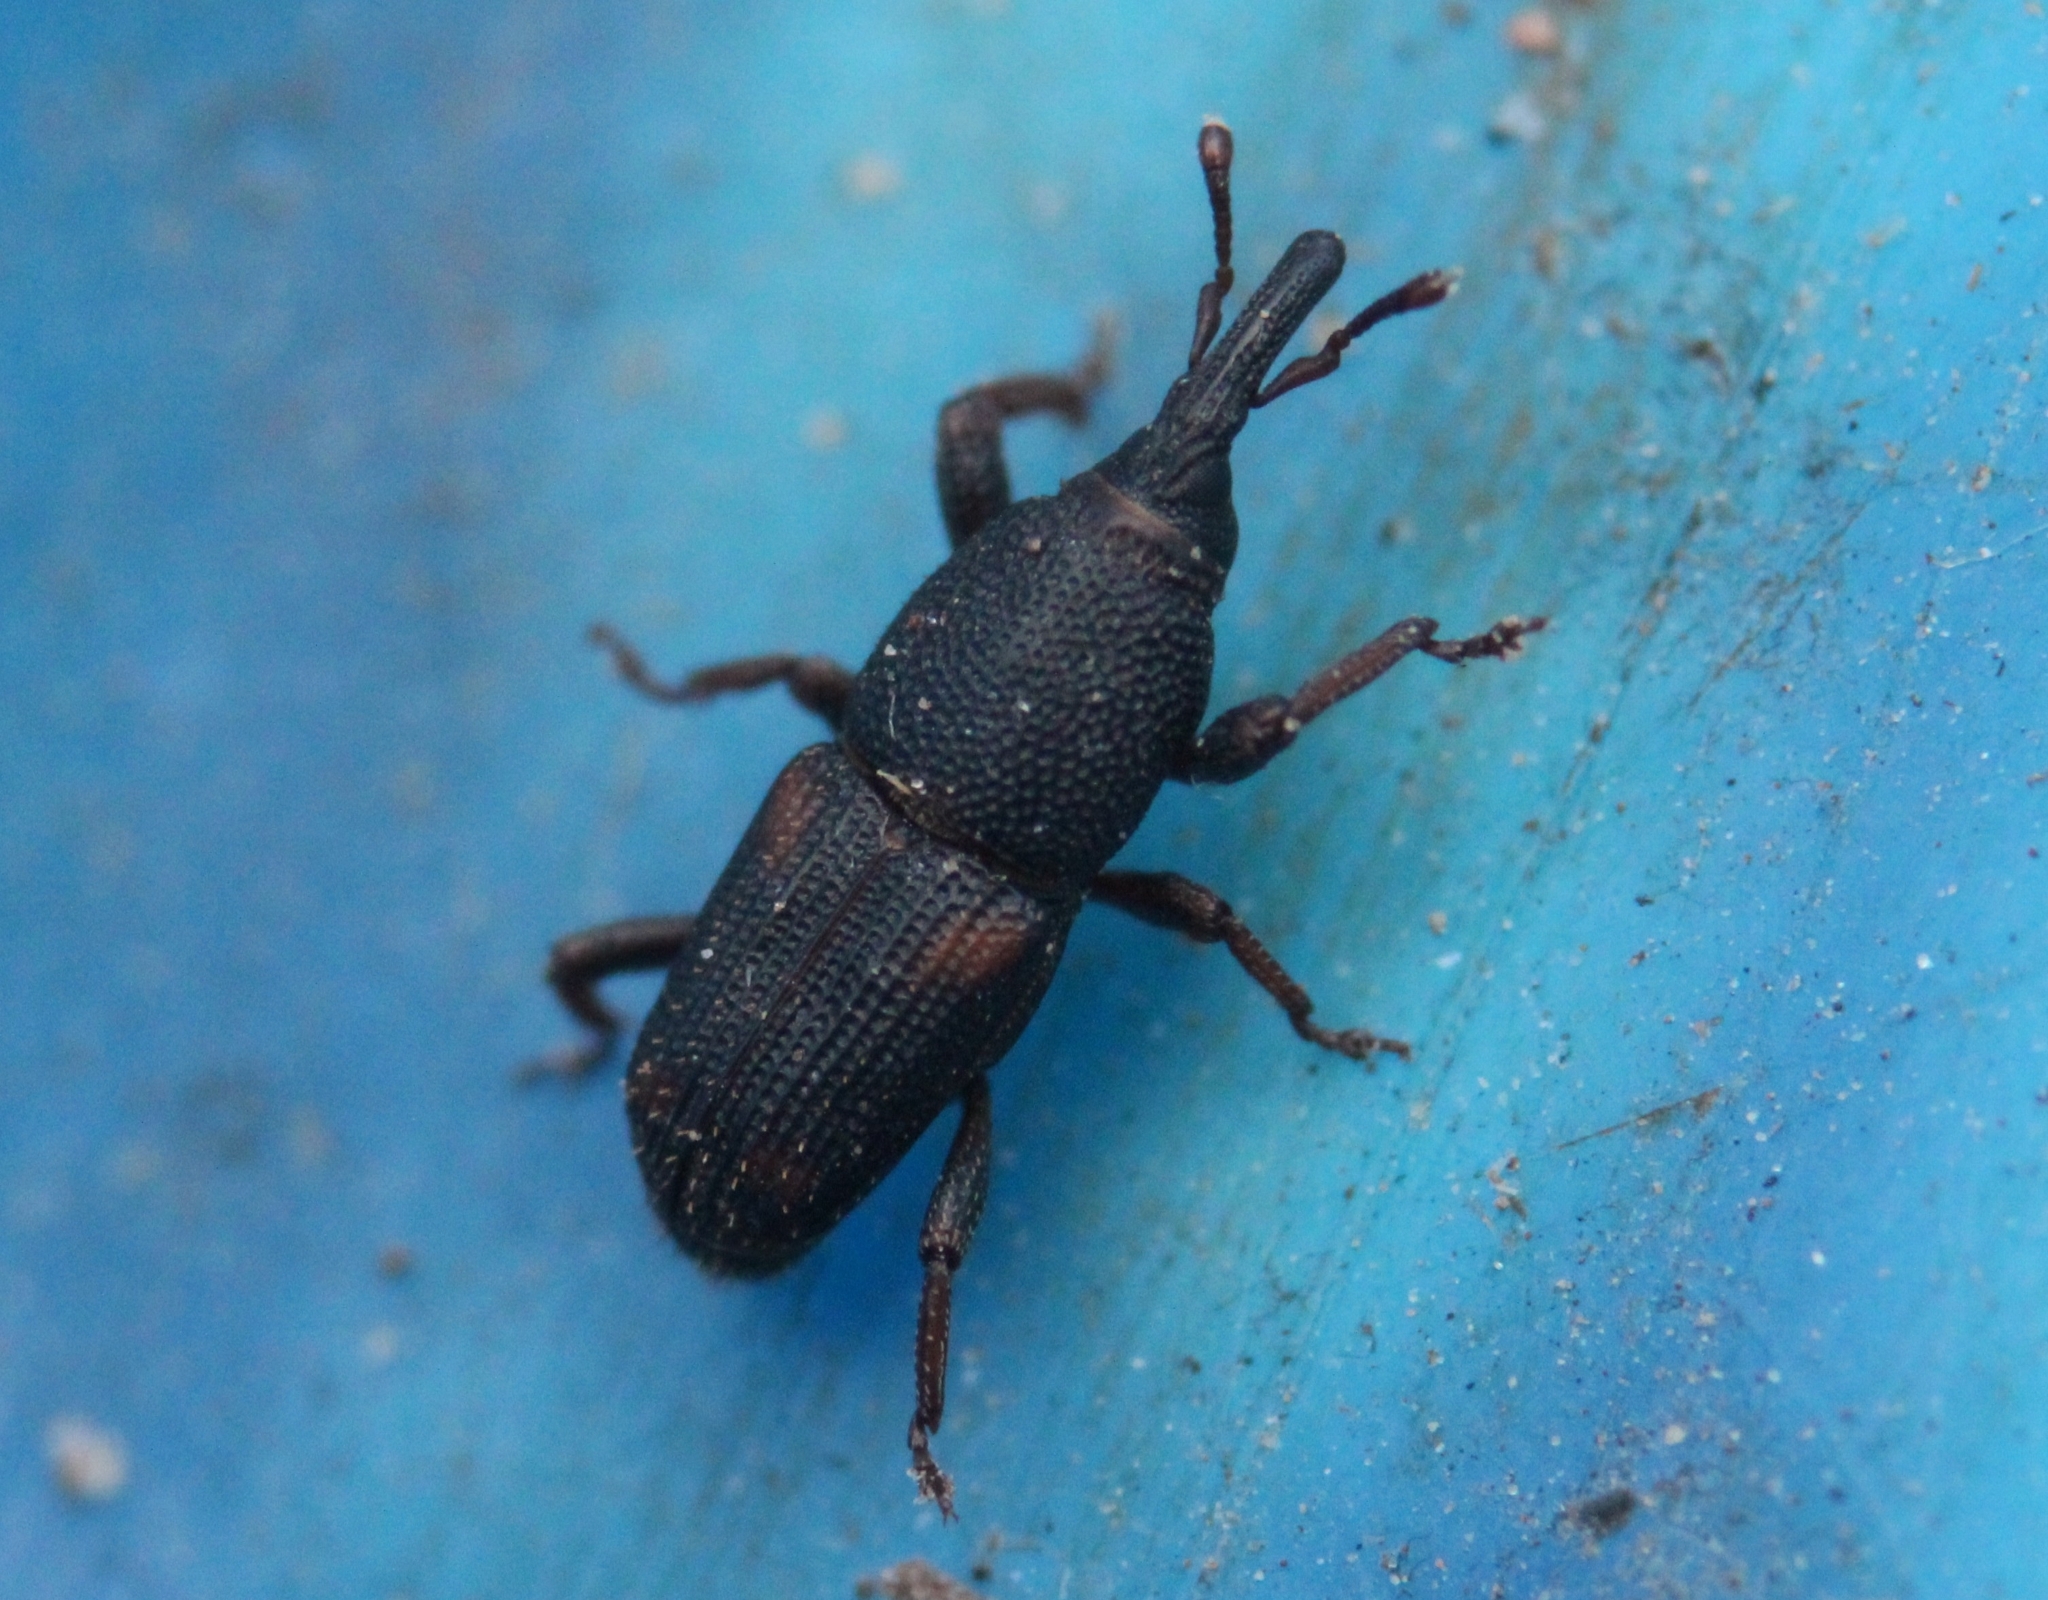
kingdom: Animalia
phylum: Arthropoda
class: Insecta
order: Coleoptera
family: Dryophthoridae
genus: Sitophilus
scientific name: Sitophilus
